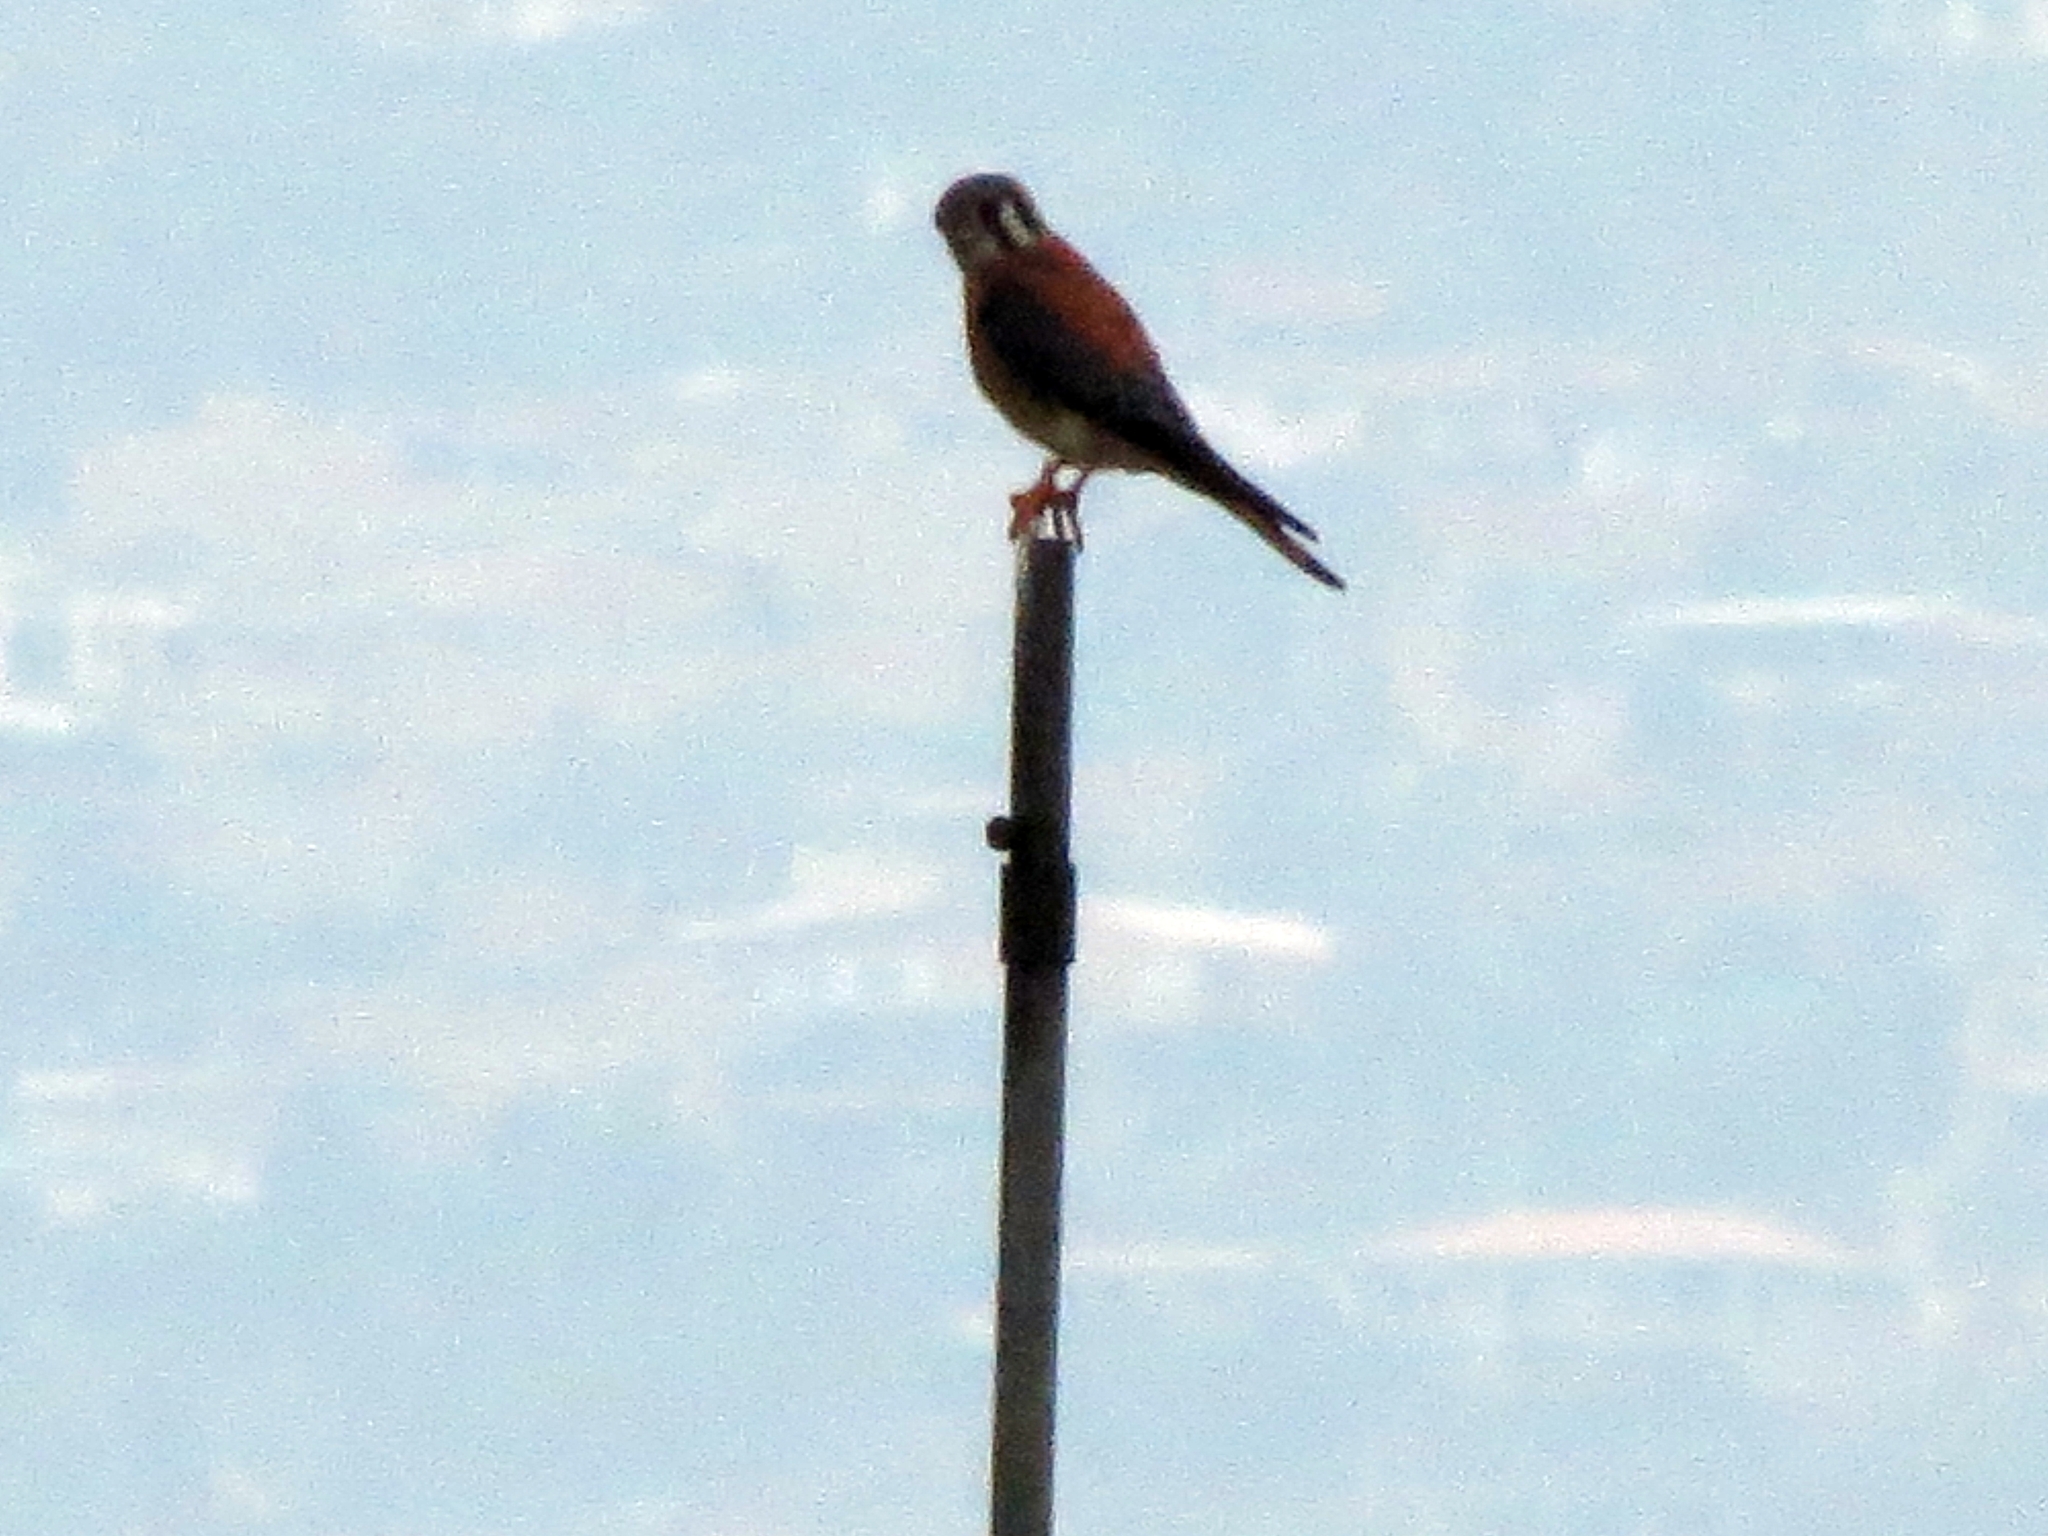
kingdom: Animalia
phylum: Chordata
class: Aves
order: Falconiformes
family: Falconidae
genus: Falco
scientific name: Falco sparverius
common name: American kestrel
